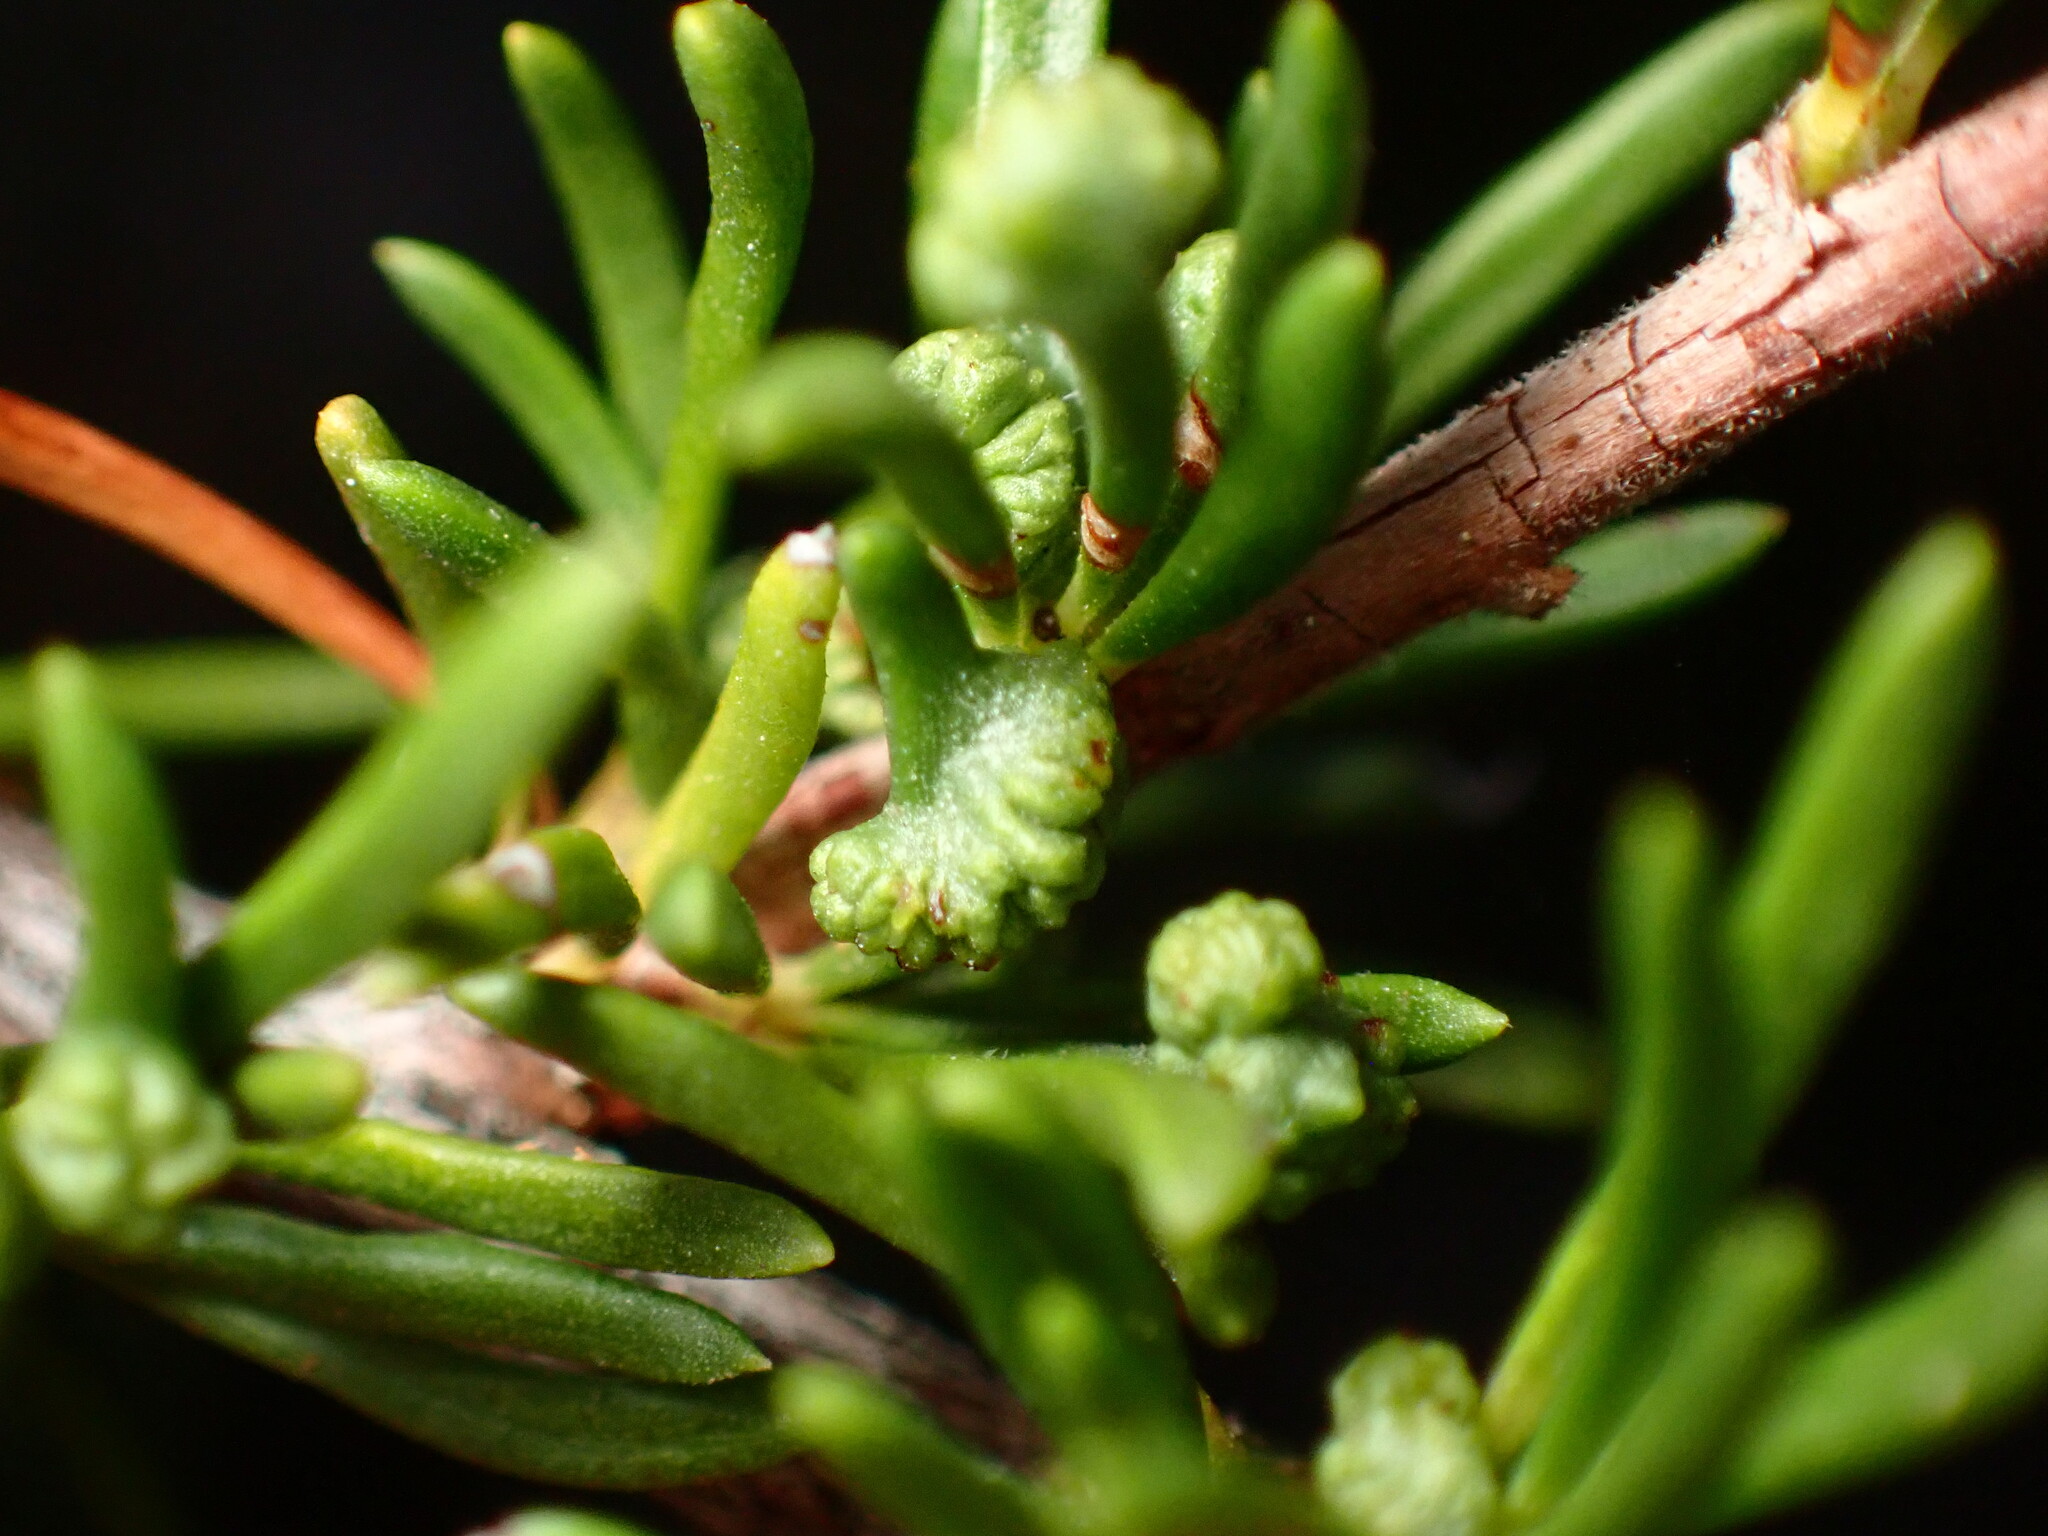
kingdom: Animalia
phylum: Arthropoda
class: Arachnida
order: Trombidiformes
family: Eriophyidae
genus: Eriophyes
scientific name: Eriophyes
